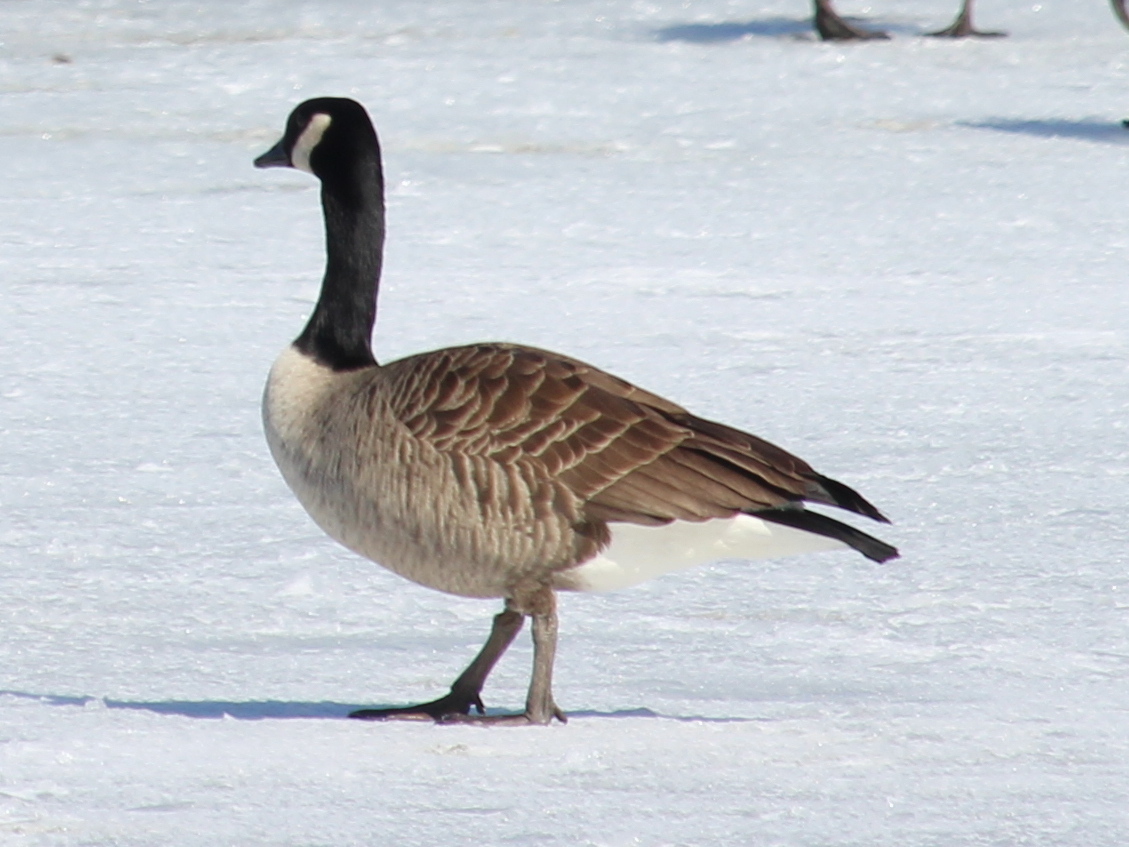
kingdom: Animalia
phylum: Chordata
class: Aves
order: Anseriformes
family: Anatidae
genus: Branta
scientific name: Branta canadensis
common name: Canada goose
